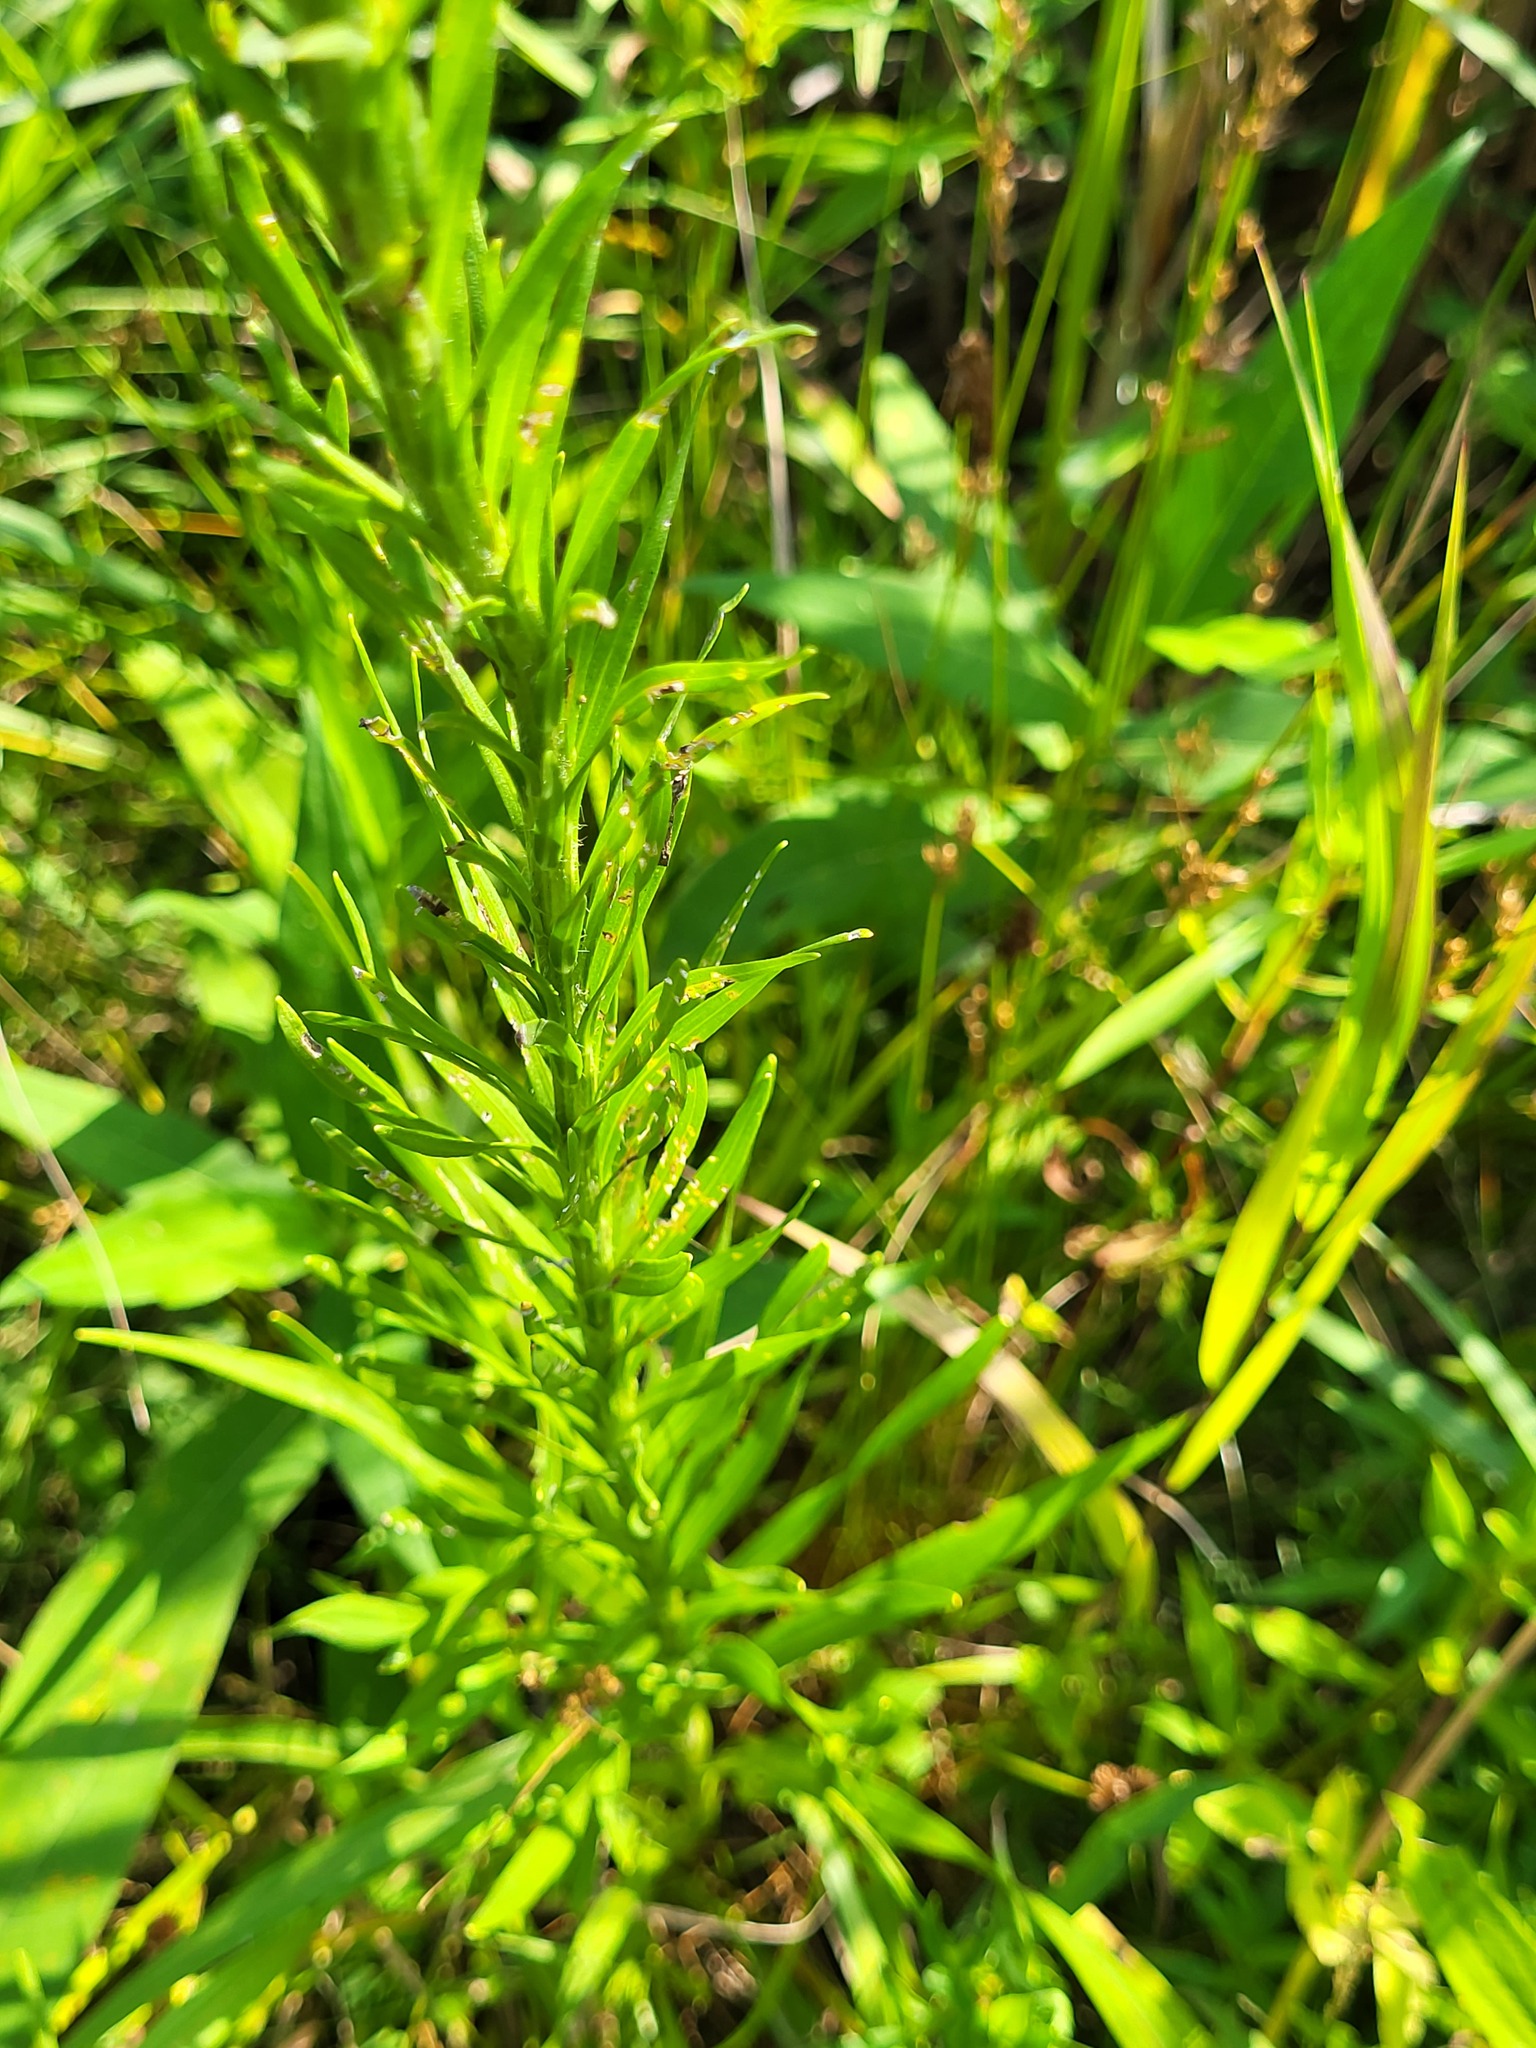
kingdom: Plantae
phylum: Tracheophyta
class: Magnoliopsida
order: Asterales
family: Asteraceae
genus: Liatris
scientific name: Liatris pycnostachya
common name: Cattail gayfeather
